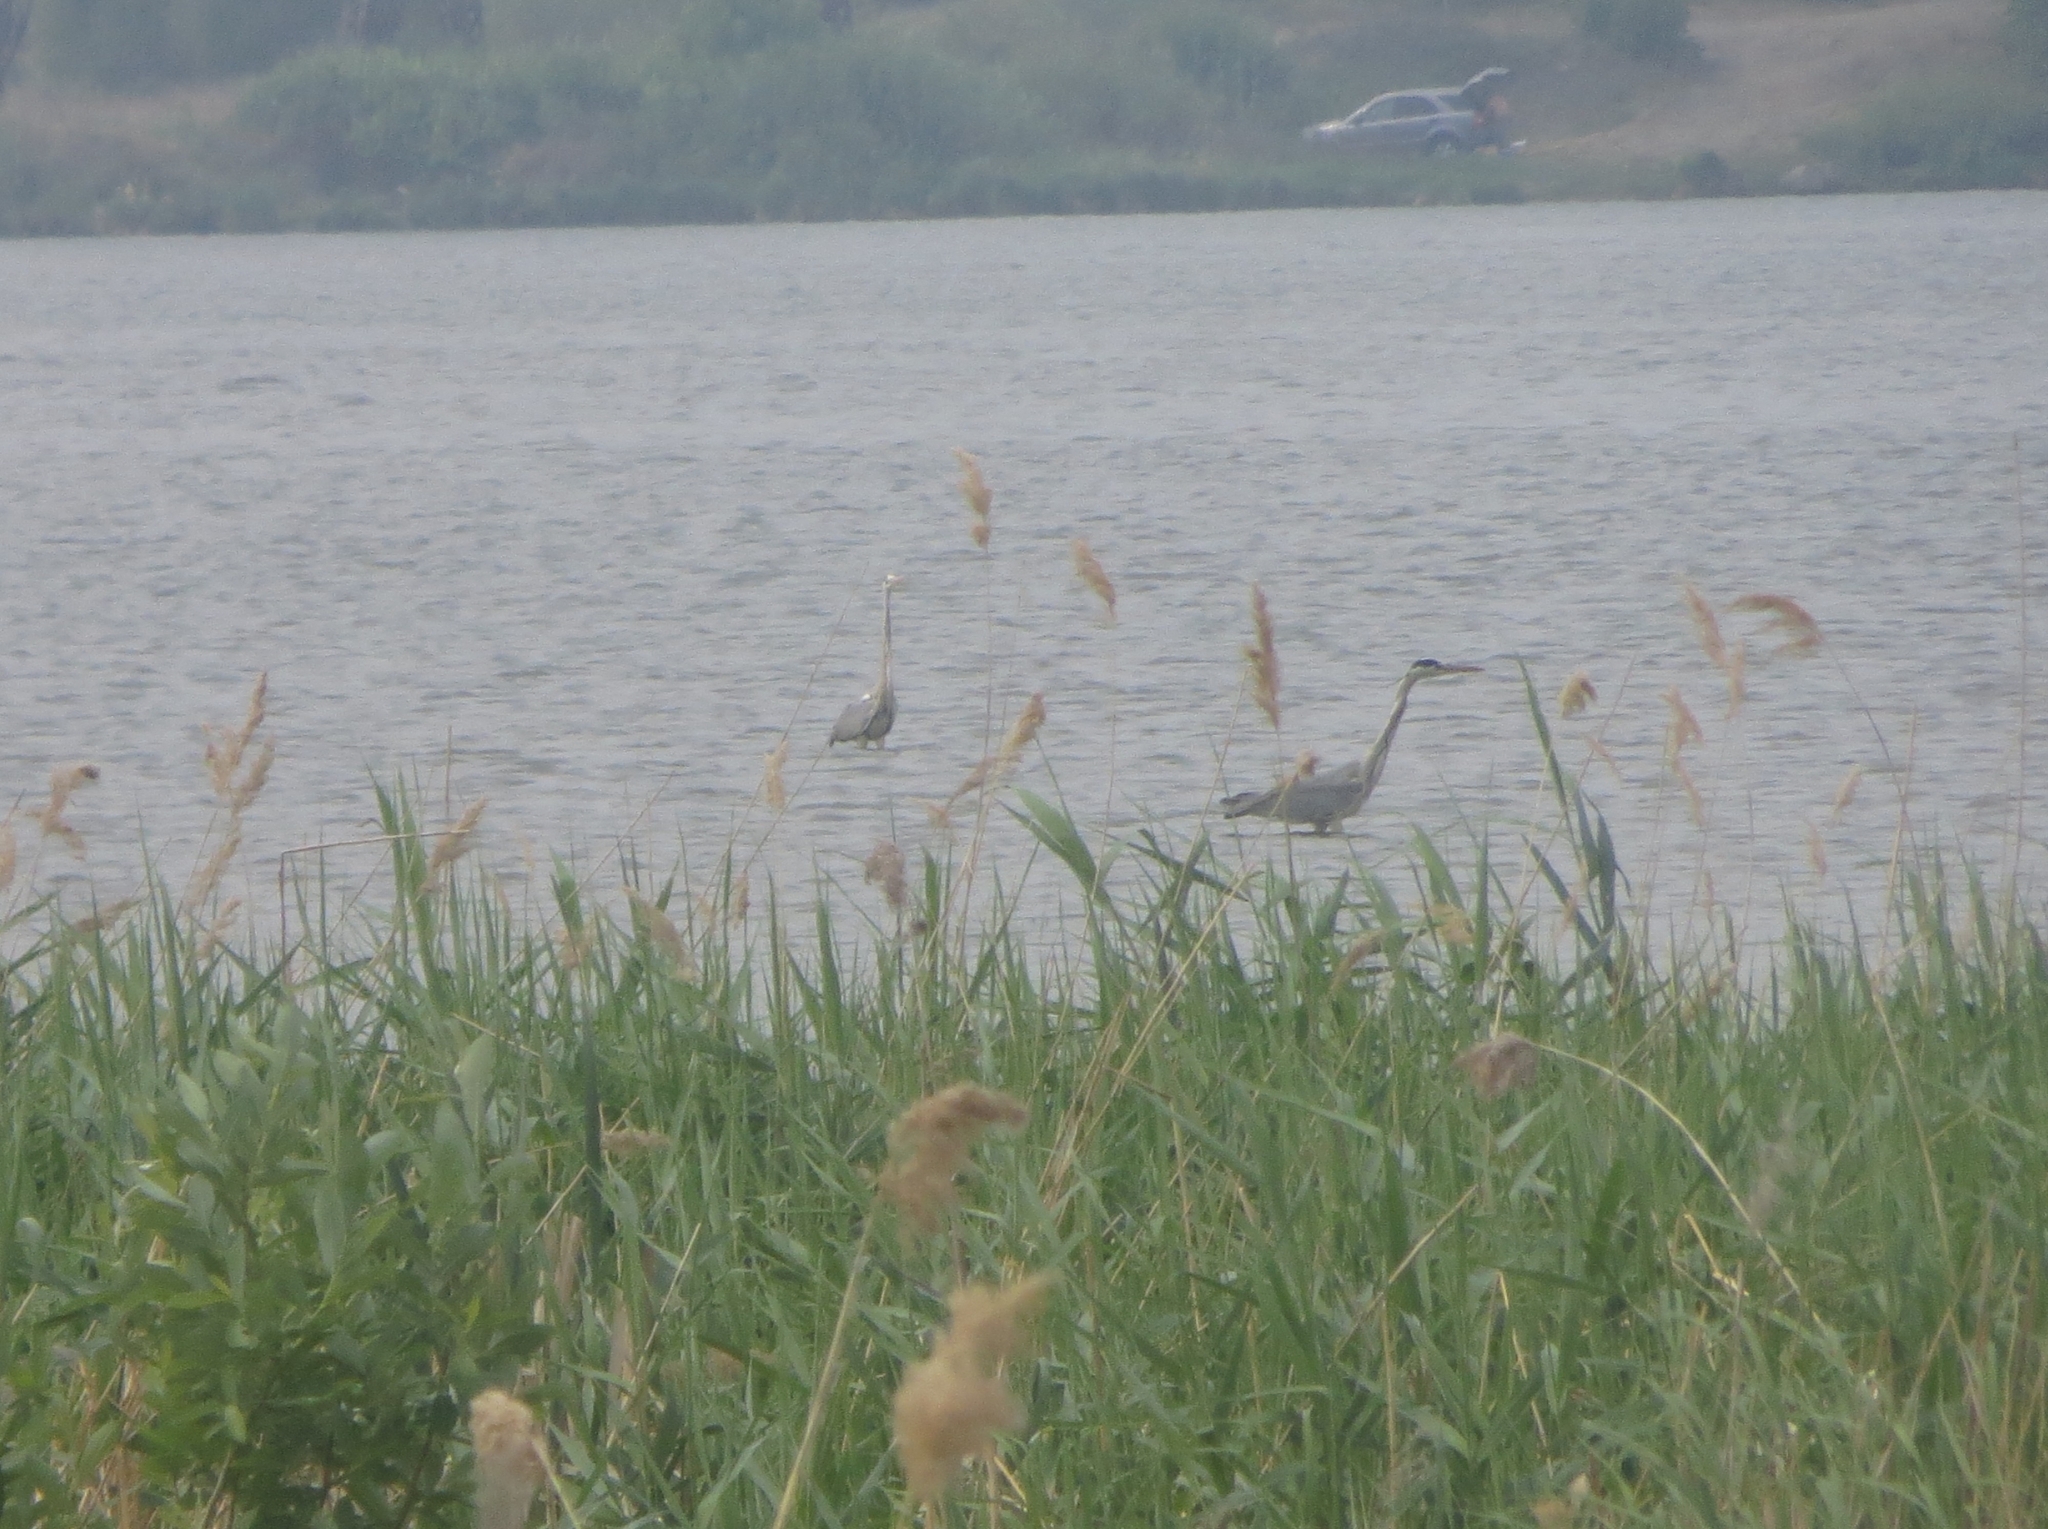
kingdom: Animalia
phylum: Chordata
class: Aves
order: Pelecaniformes
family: Ardeidae
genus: Ardea
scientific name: Ardea cinerea
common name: Grey heron
